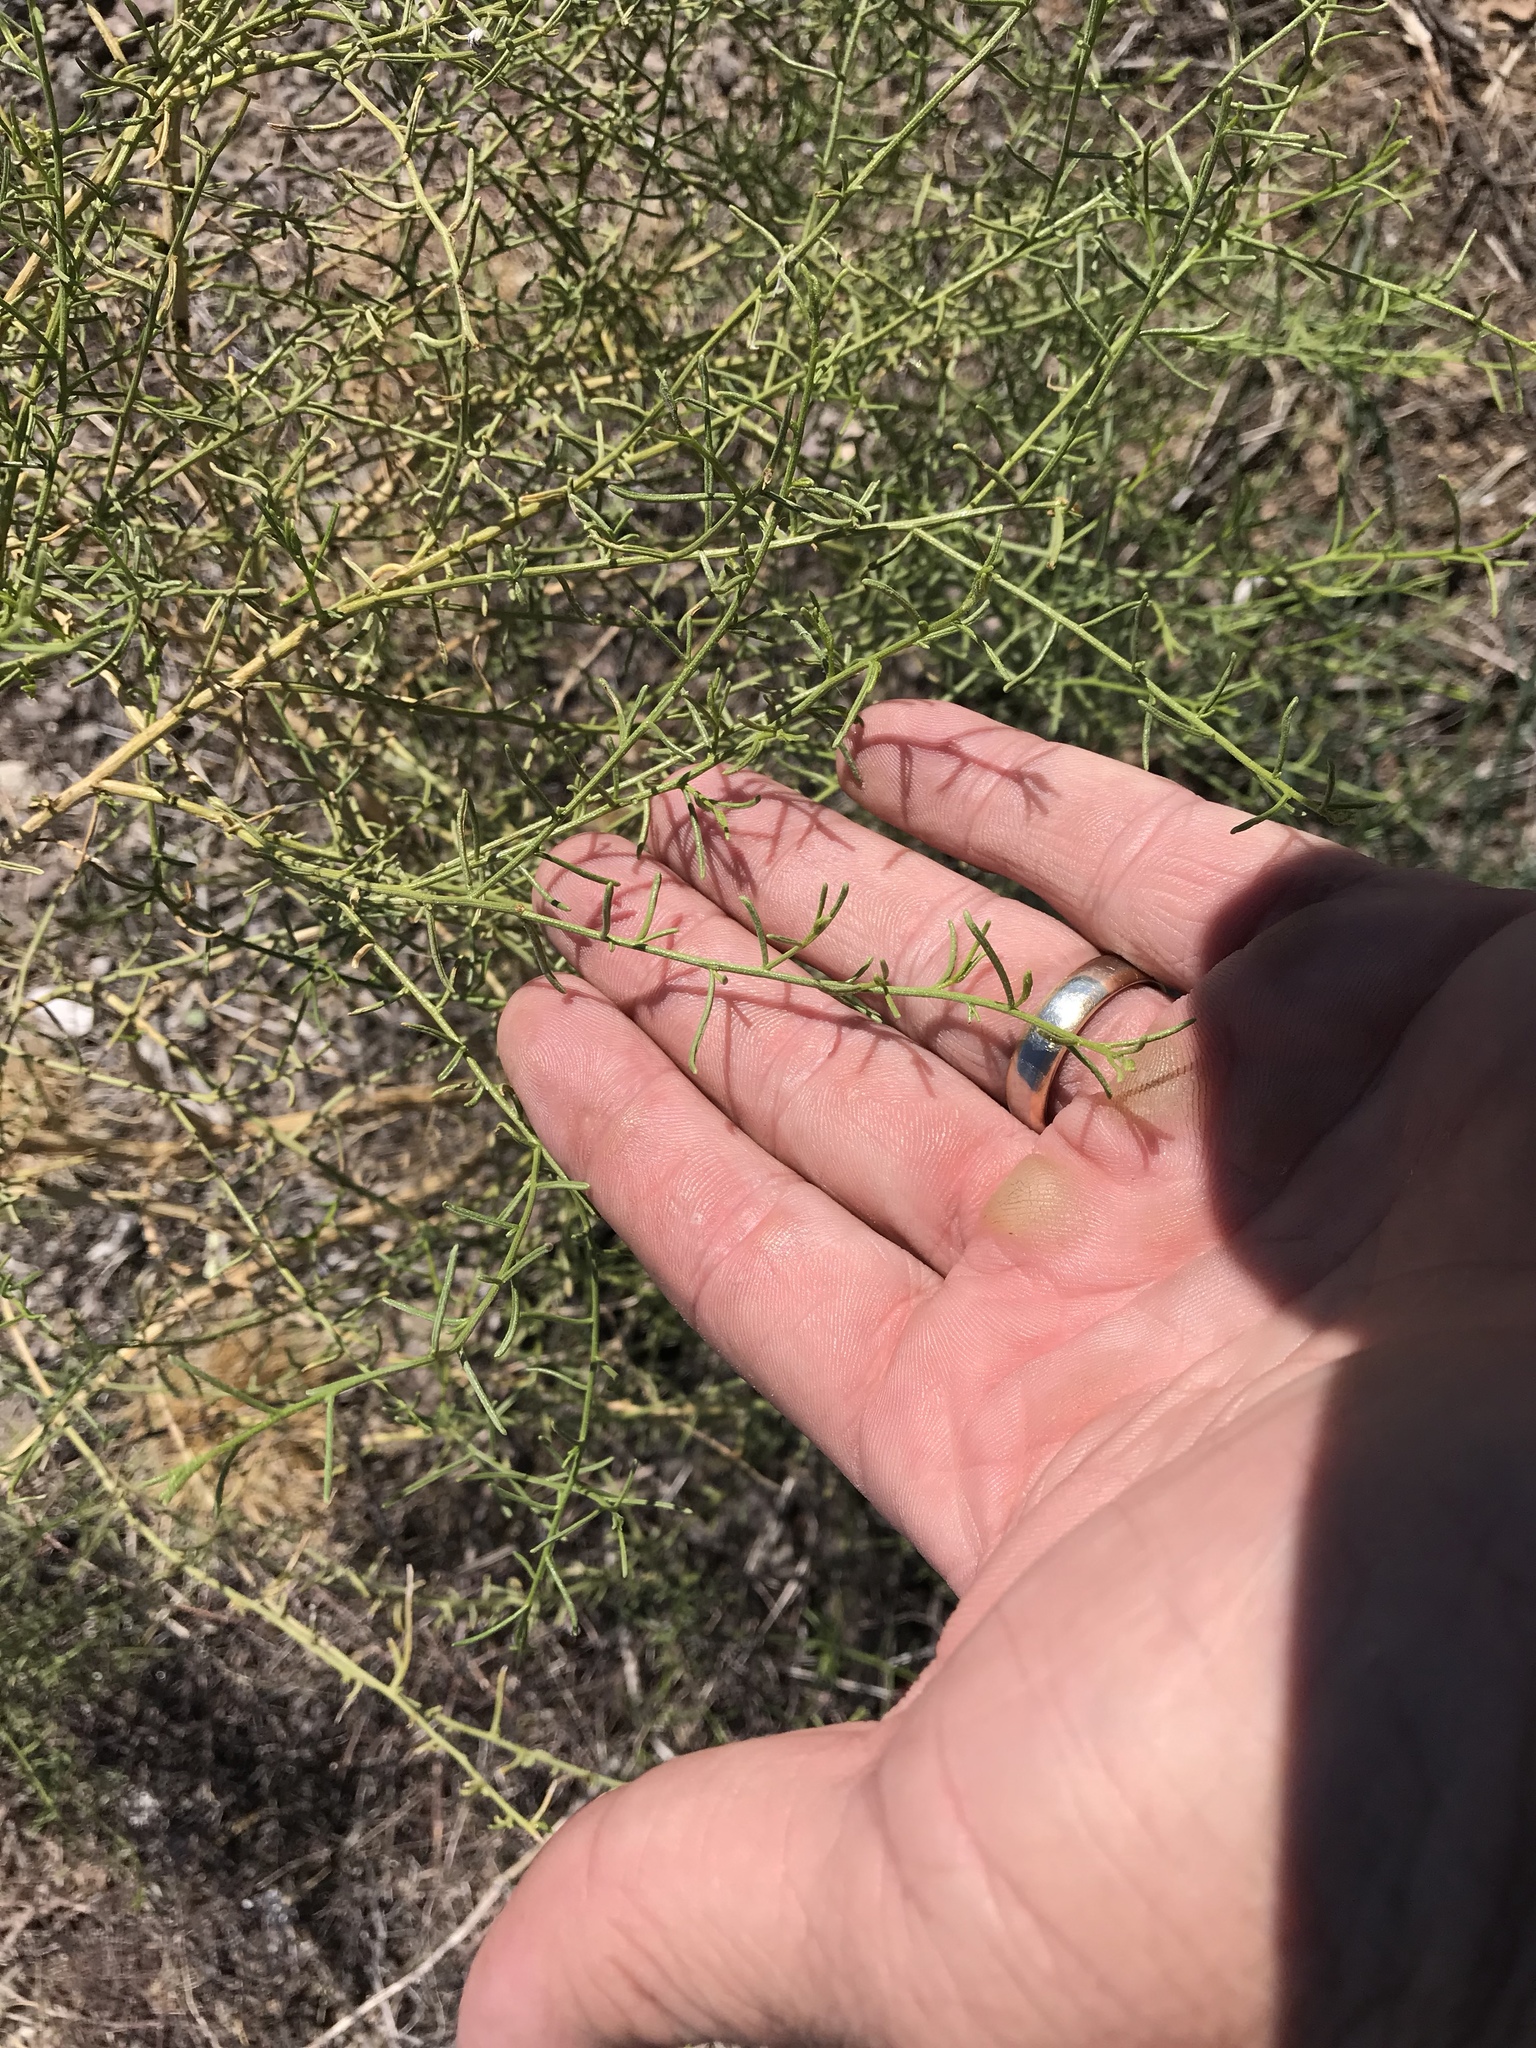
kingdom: Plantae
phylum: Tracheophyta
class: Magnoliopsida
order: Asterales
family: Asteraceae
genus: Ambrosia
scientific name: Ambrosia salsola
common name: Burrobrush
